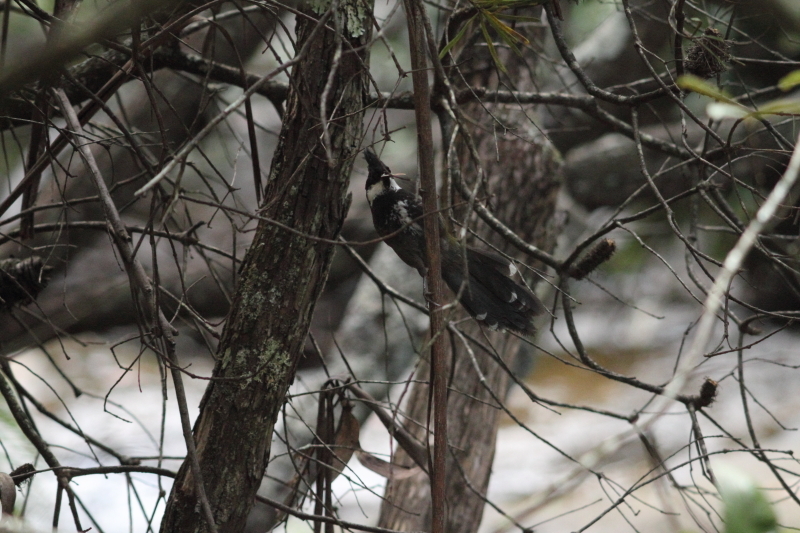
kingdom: Animalia
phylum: Chordata
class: Aves
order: Passeriformes
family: Psophodidae
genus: Psophodes
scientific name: Psophodes olivaceus
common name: Eastern whipbird
